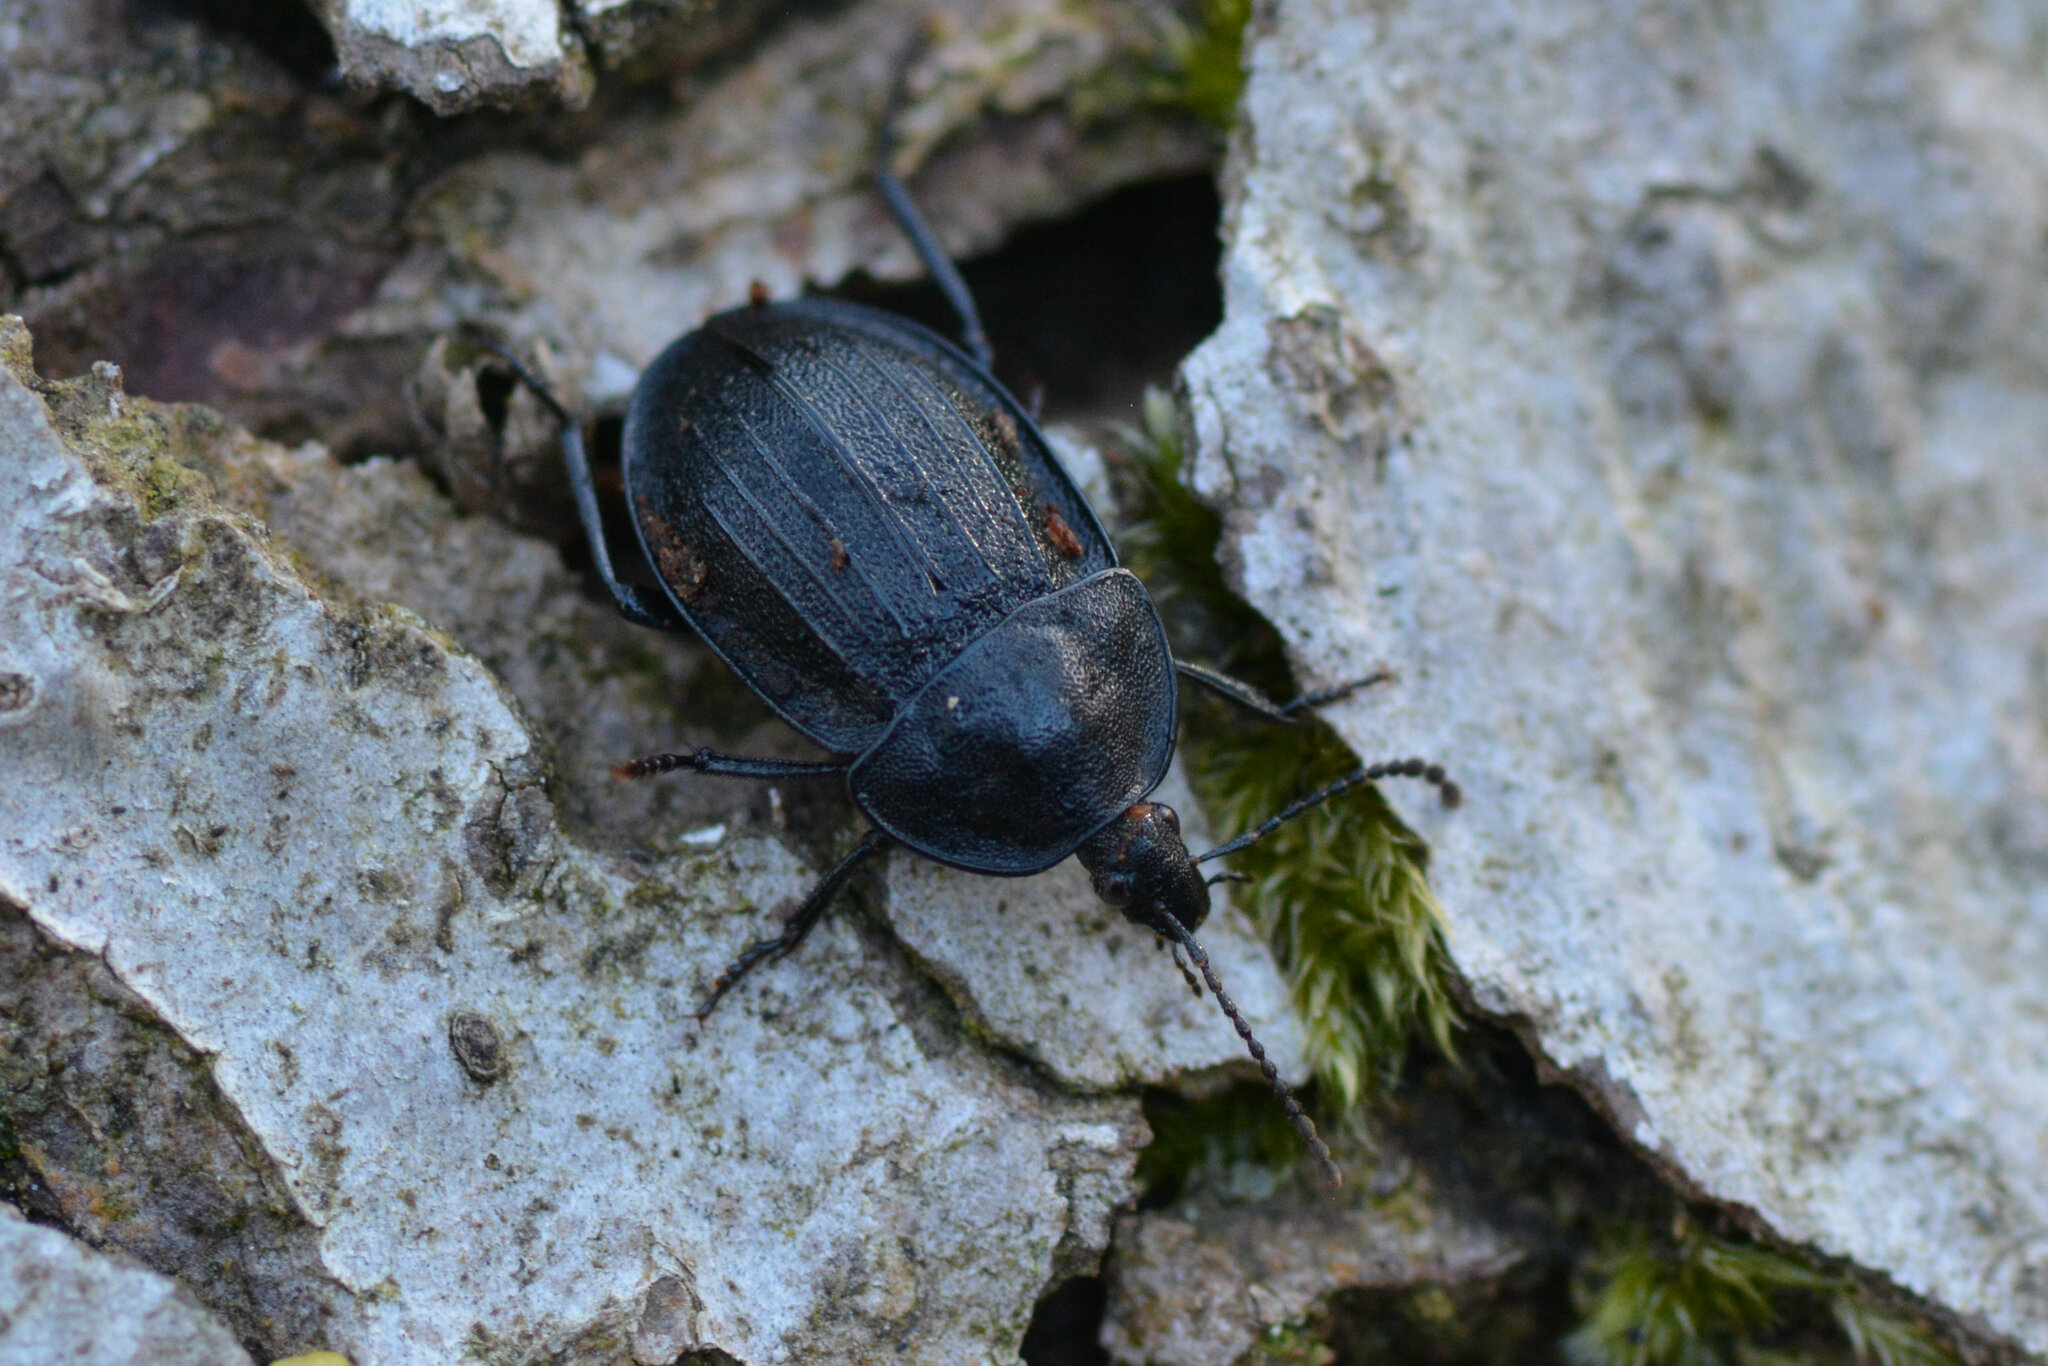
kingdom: Animalia
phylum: Arthropoda
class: Insecta
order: Coleoptera
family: Staphylinidae
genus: Silpha
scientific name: Silpha atrata
